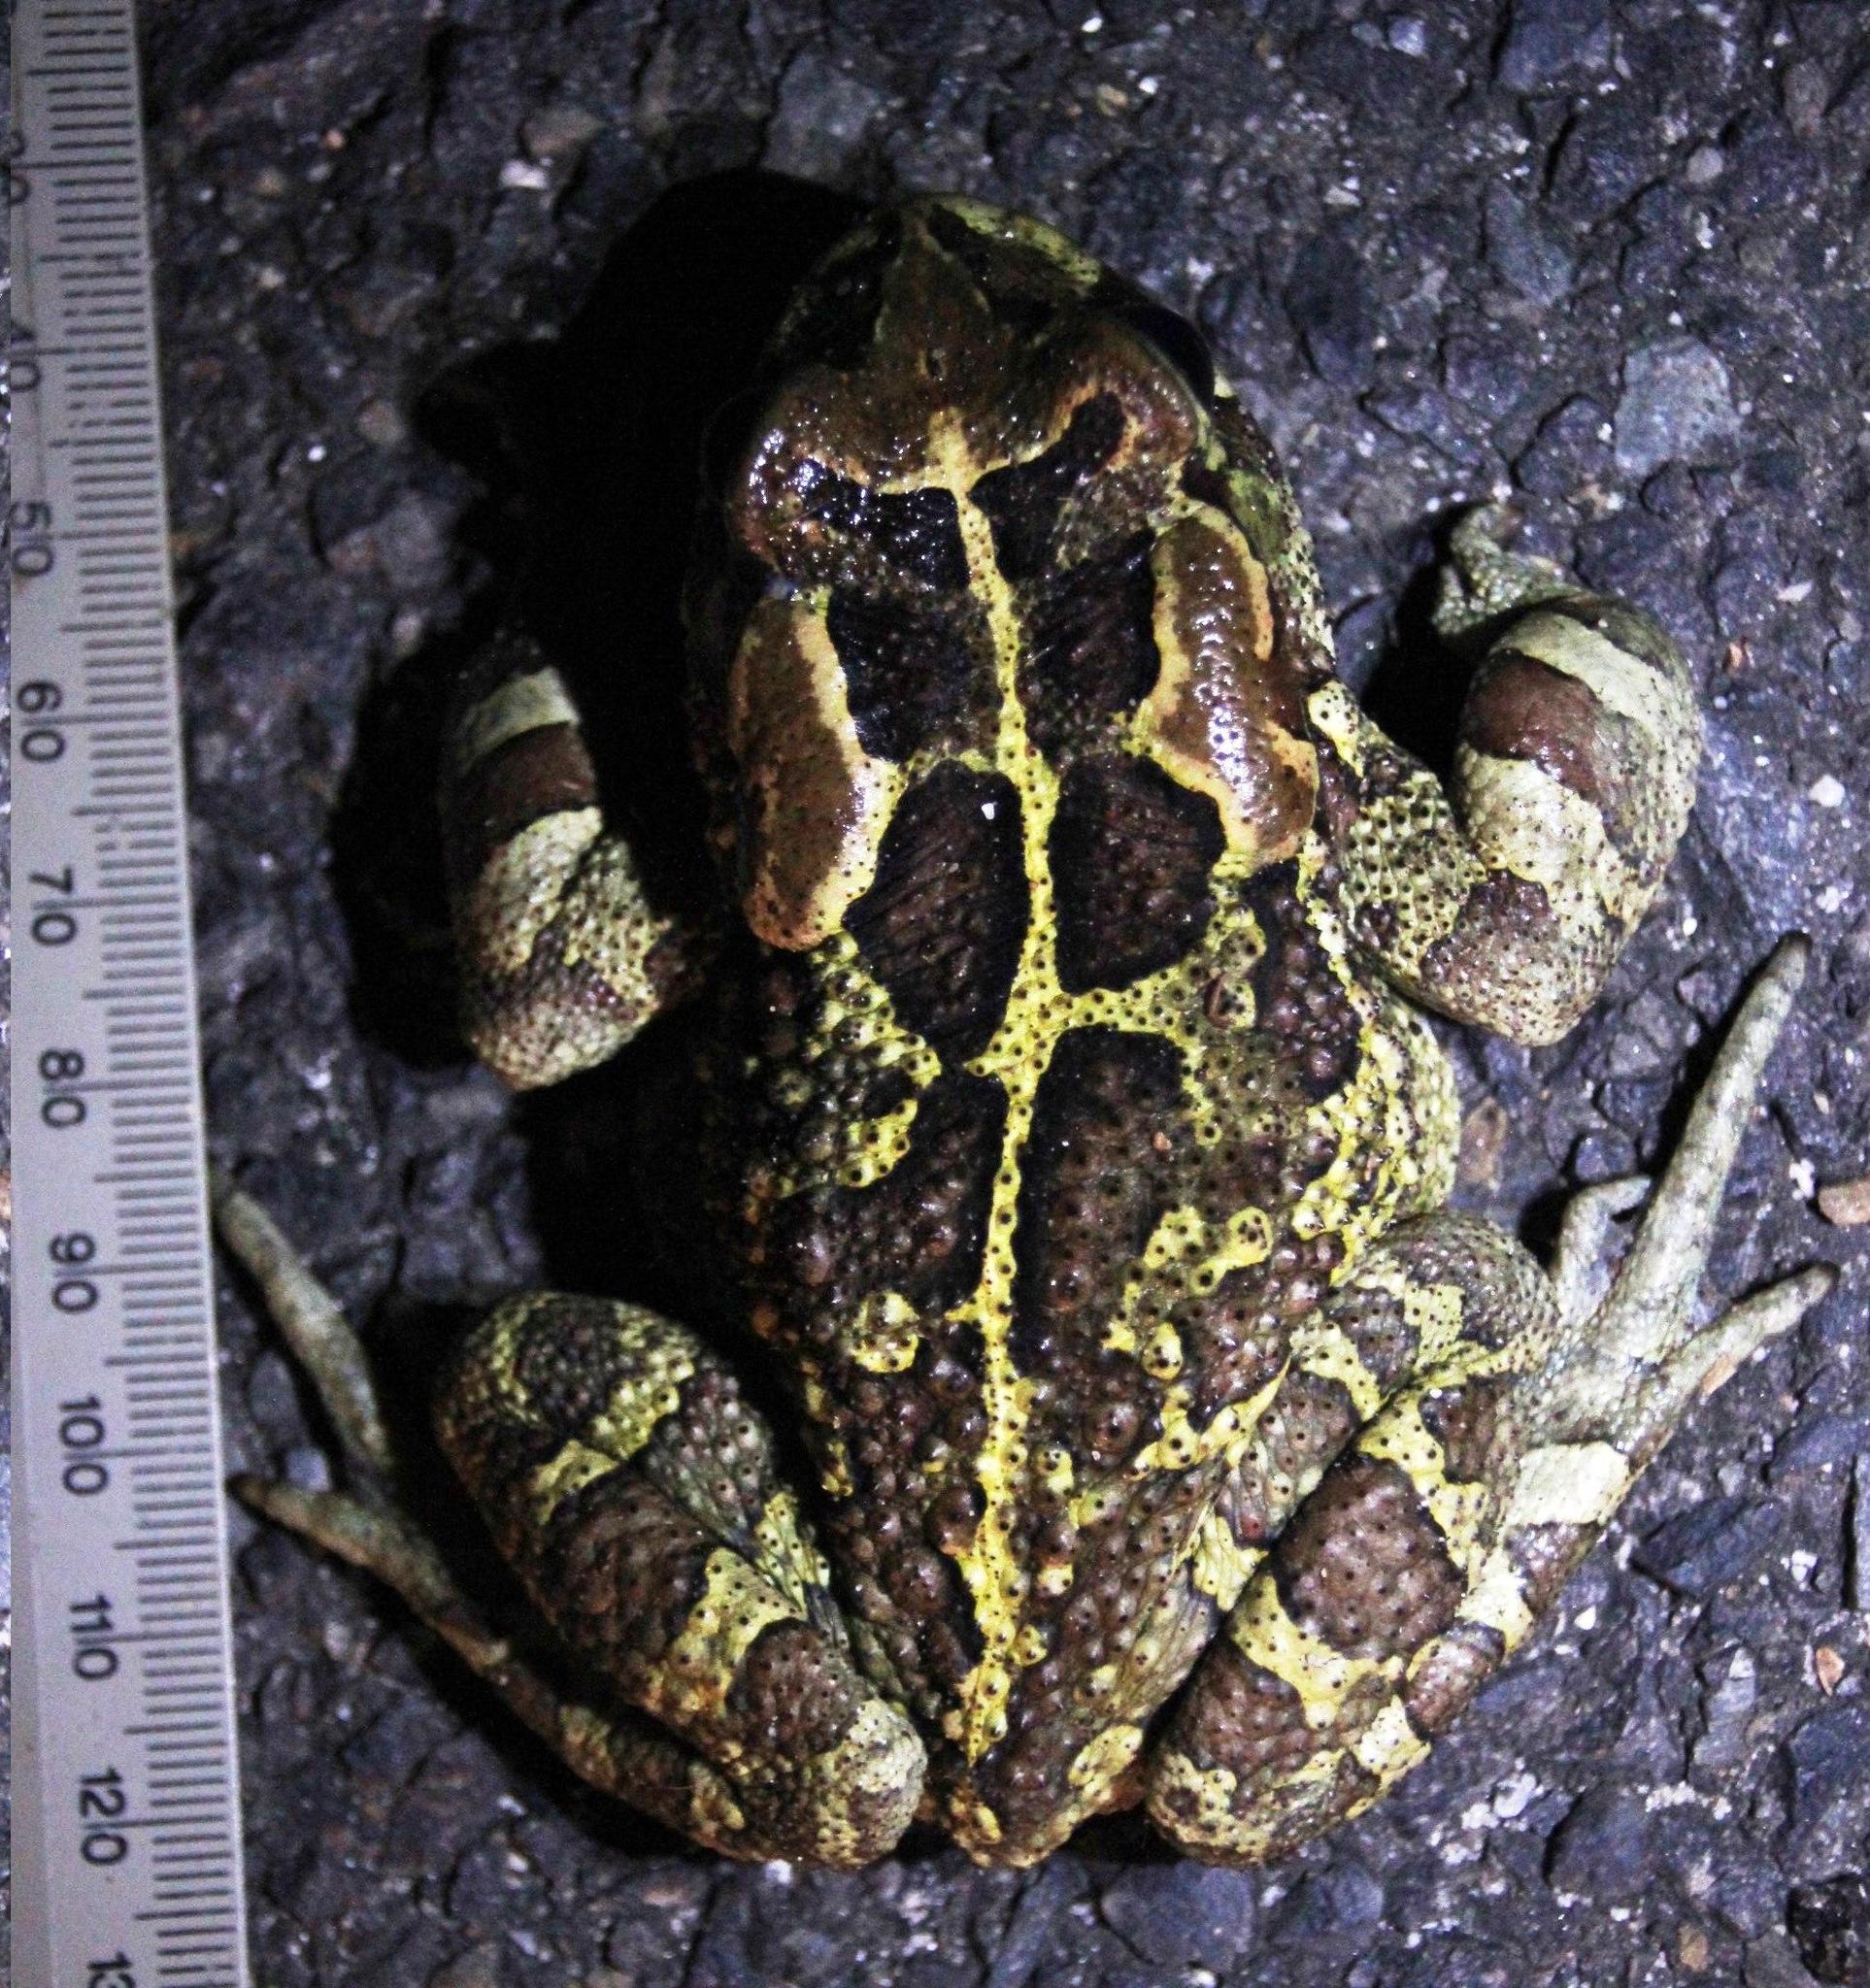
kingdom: Animalia
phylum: Chordata
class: Amphibia
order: Anura
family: Bufonidae
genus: Sclerophrys
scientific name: Sclerophrys pantherina
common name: Panther toad
